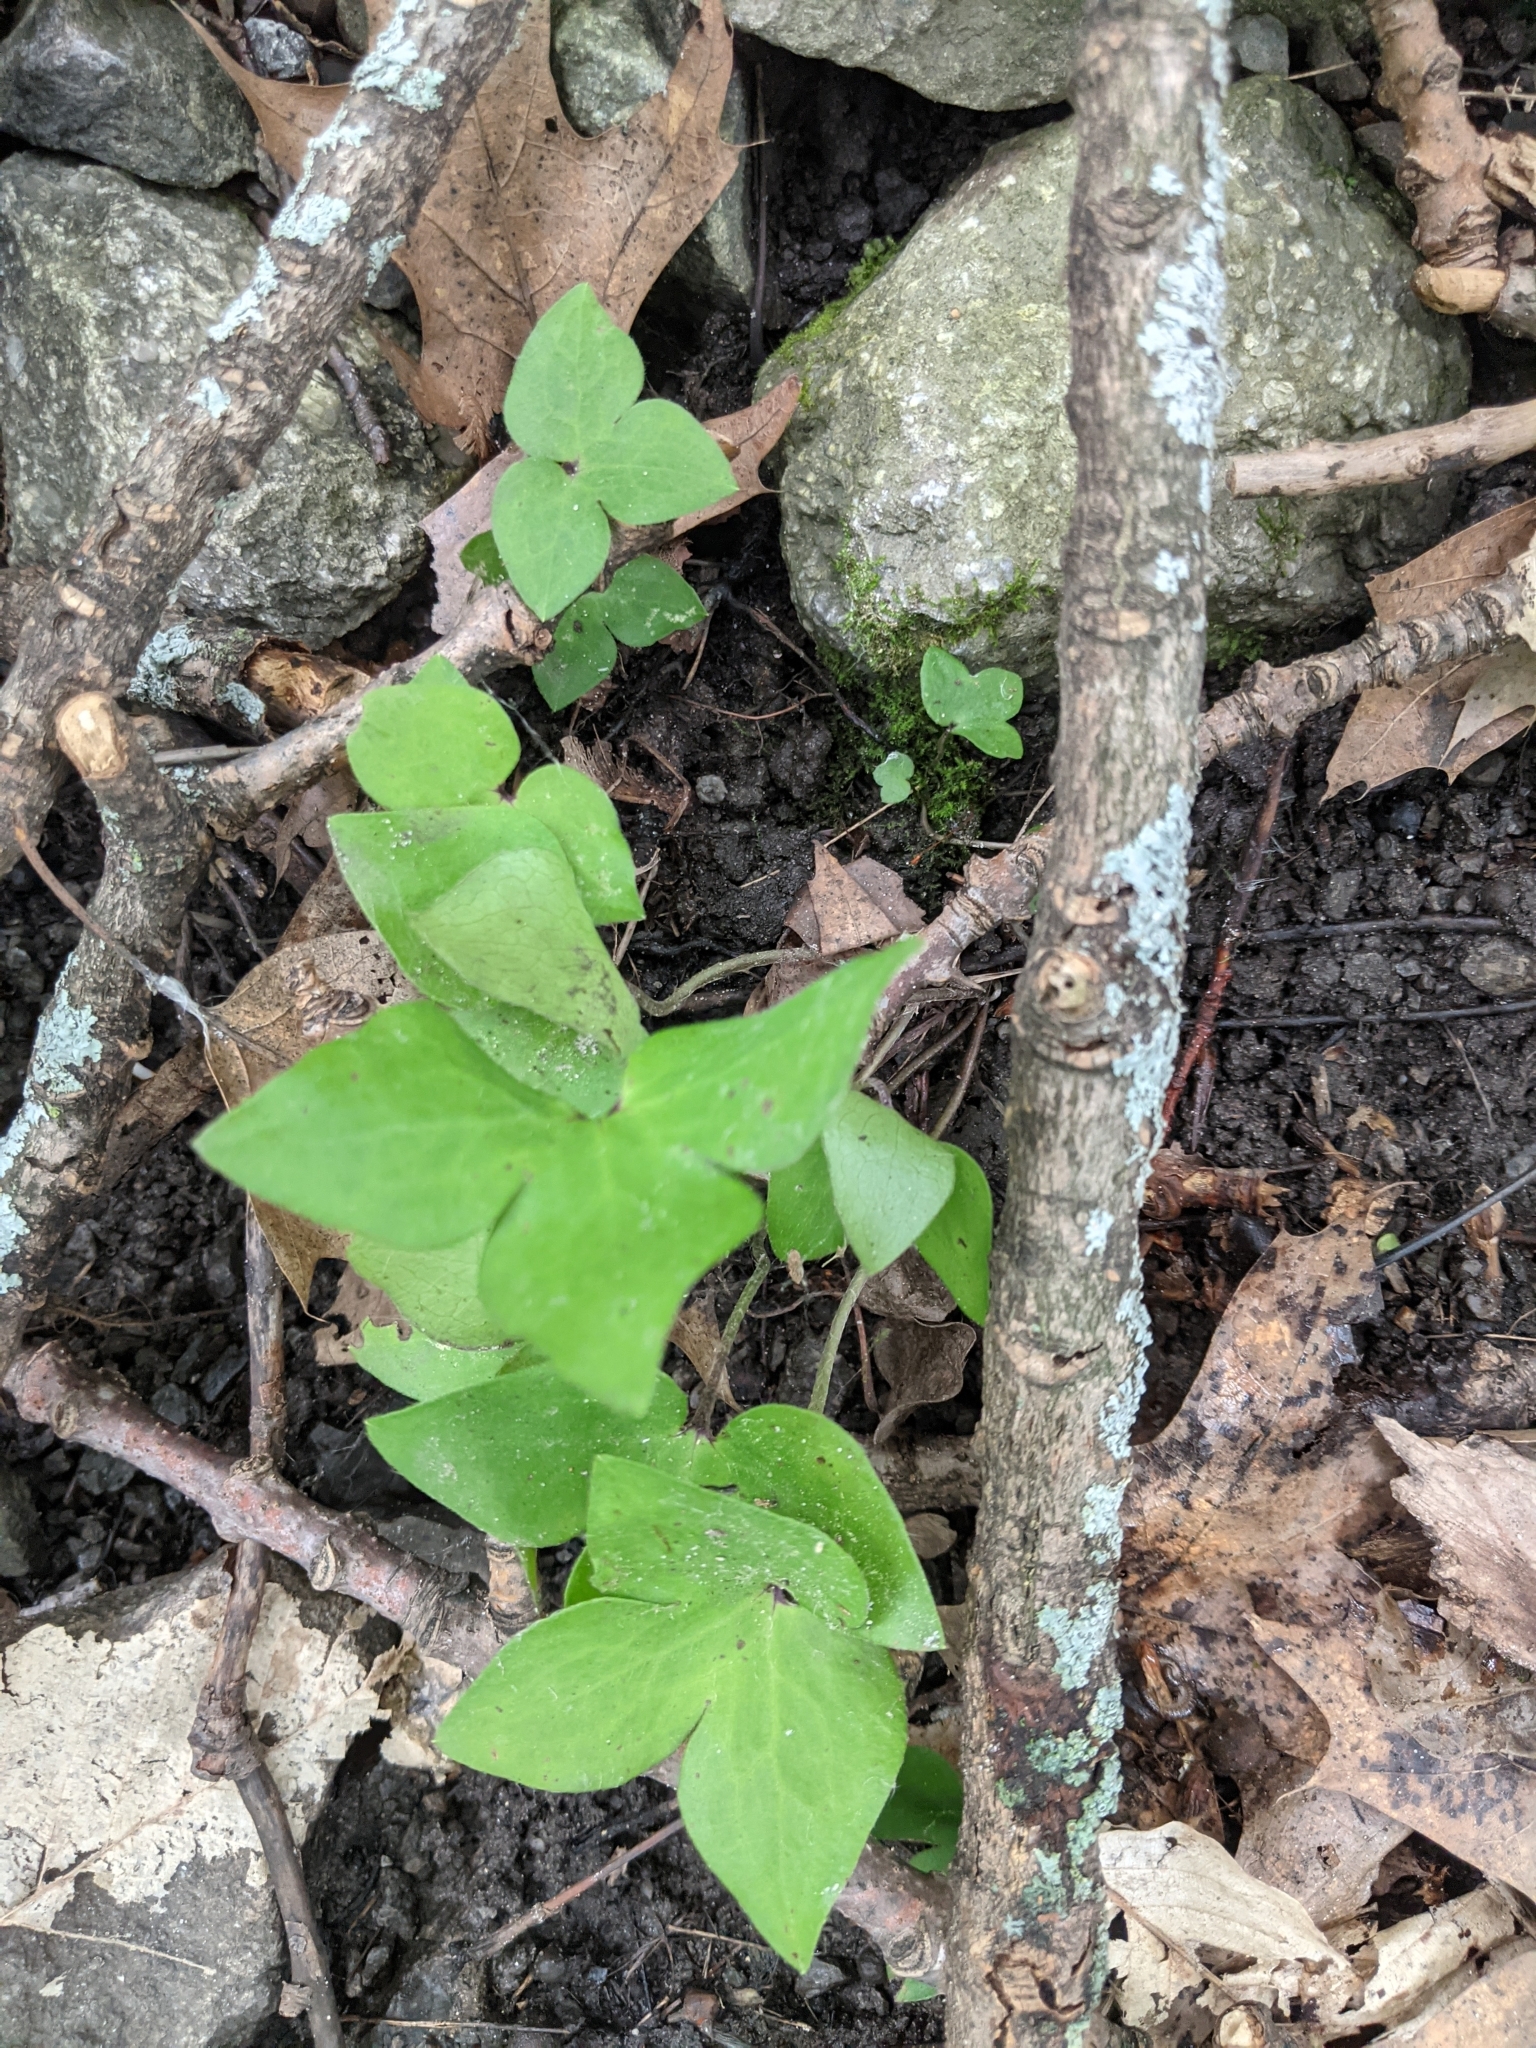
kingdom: Plantae
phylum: Tracheophyta
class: Magnoliopsida
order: Ranunculales
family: Ranunculaceae
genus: Hepatica
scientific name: Hepatica acutiloba
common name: Sharp-lobed hepatica
